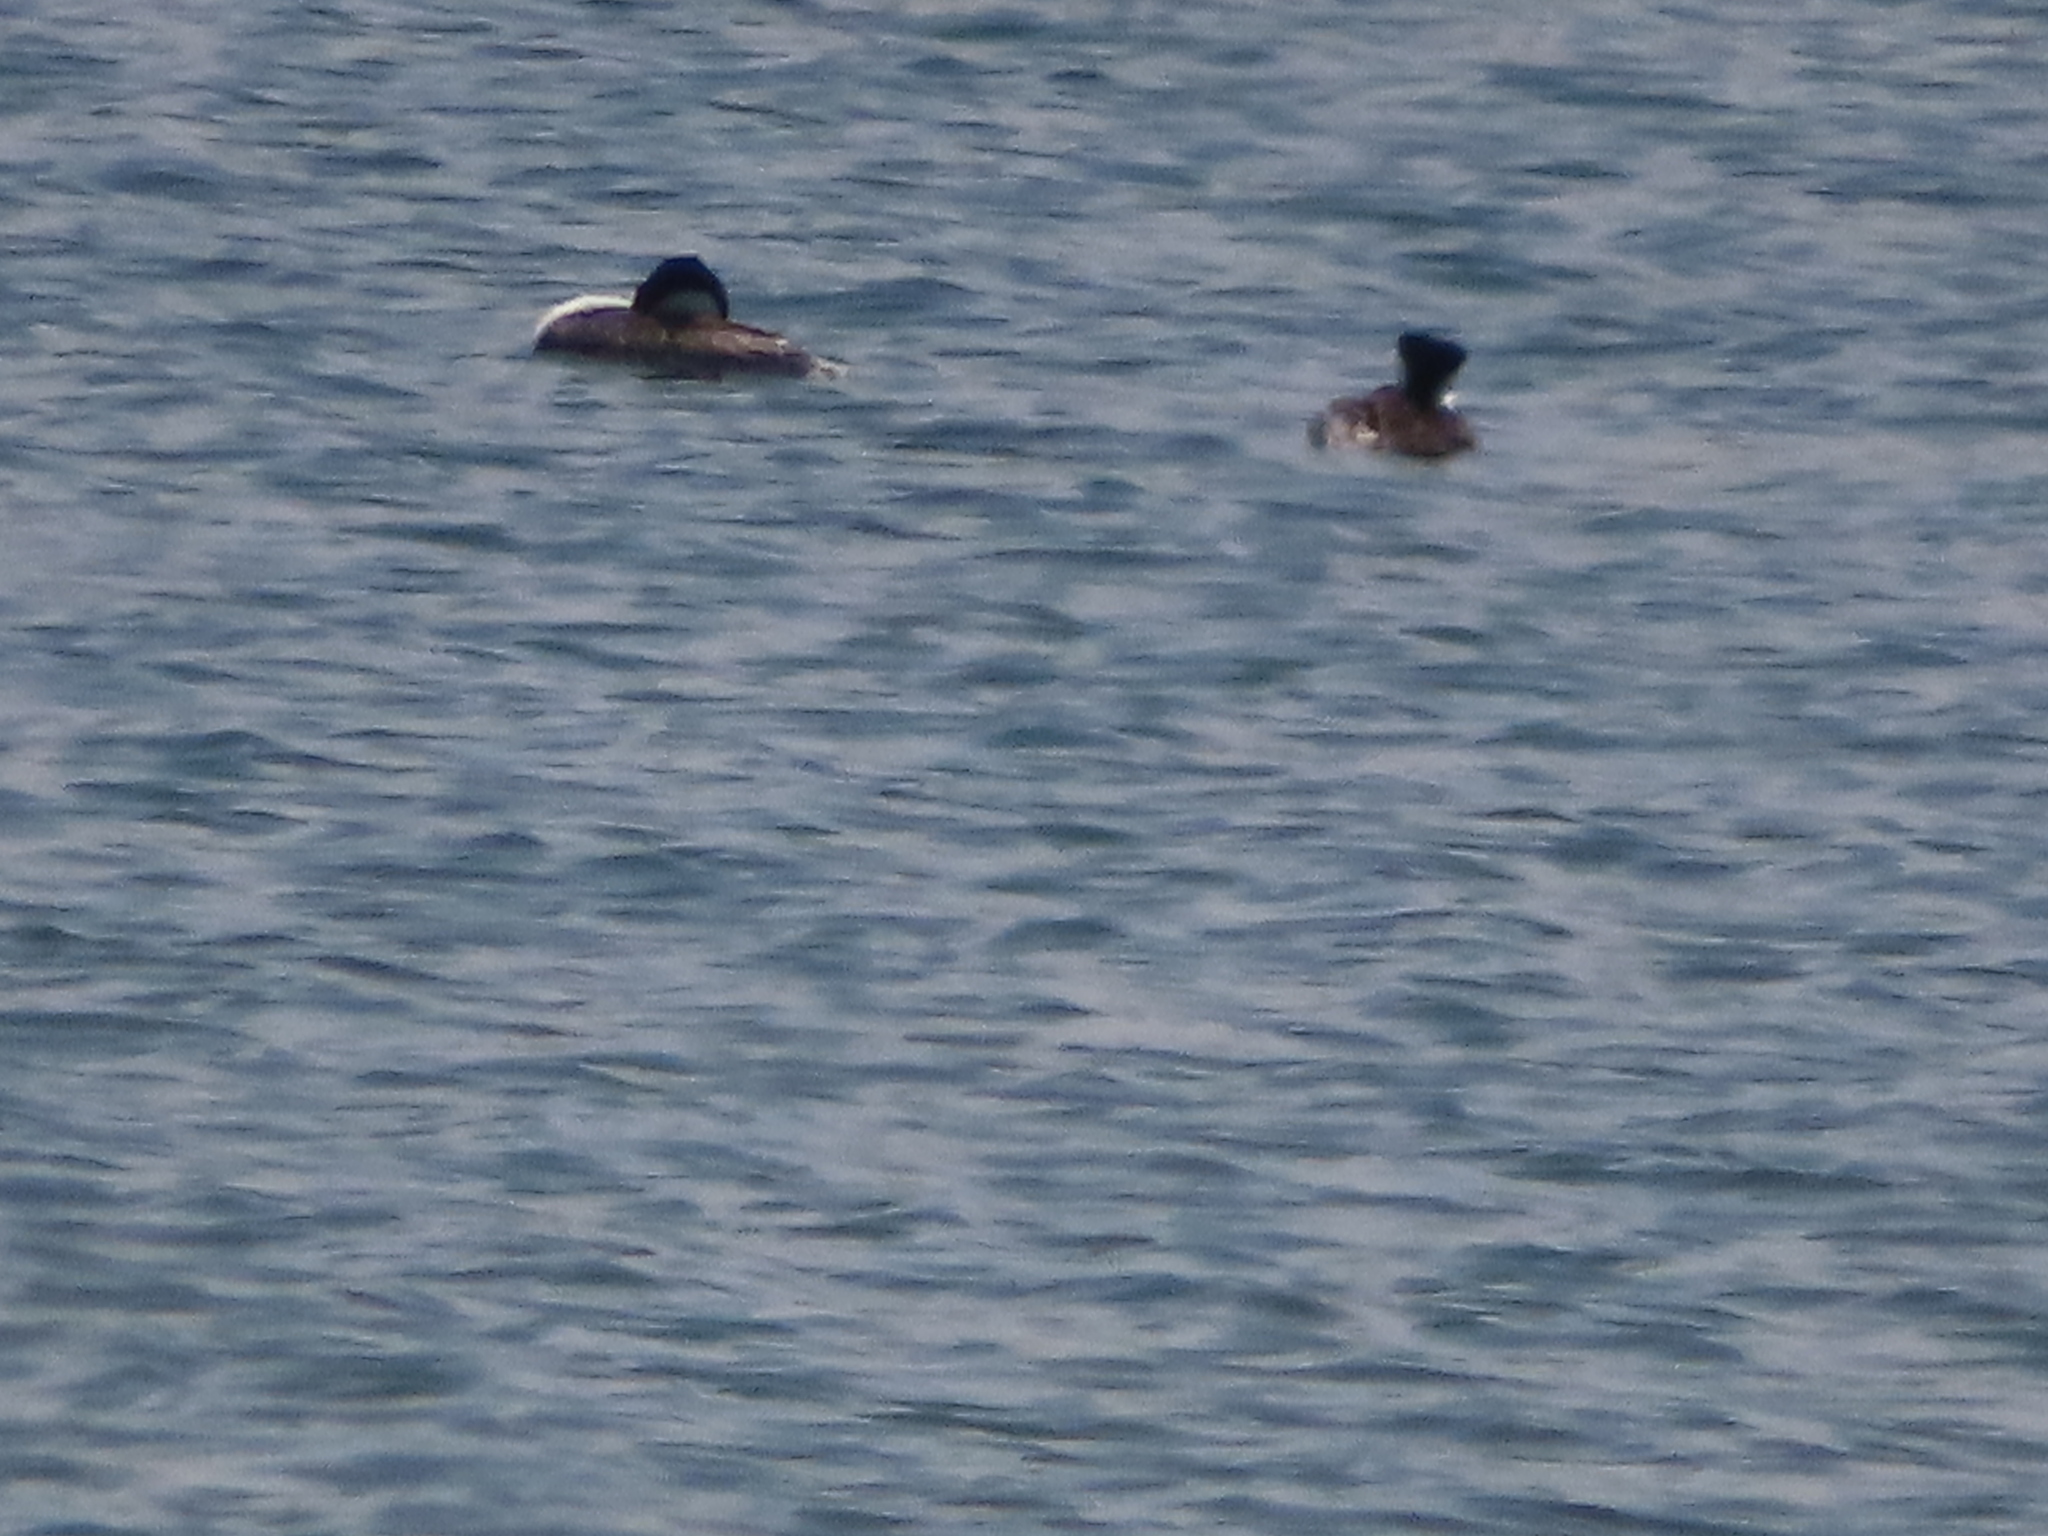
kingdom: Animalia
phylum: Chordata
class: Aves
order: Anseriformes
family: Anatidae
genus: Oxyura
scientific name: Oxyura jamaicensis
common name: Ruddy duck
